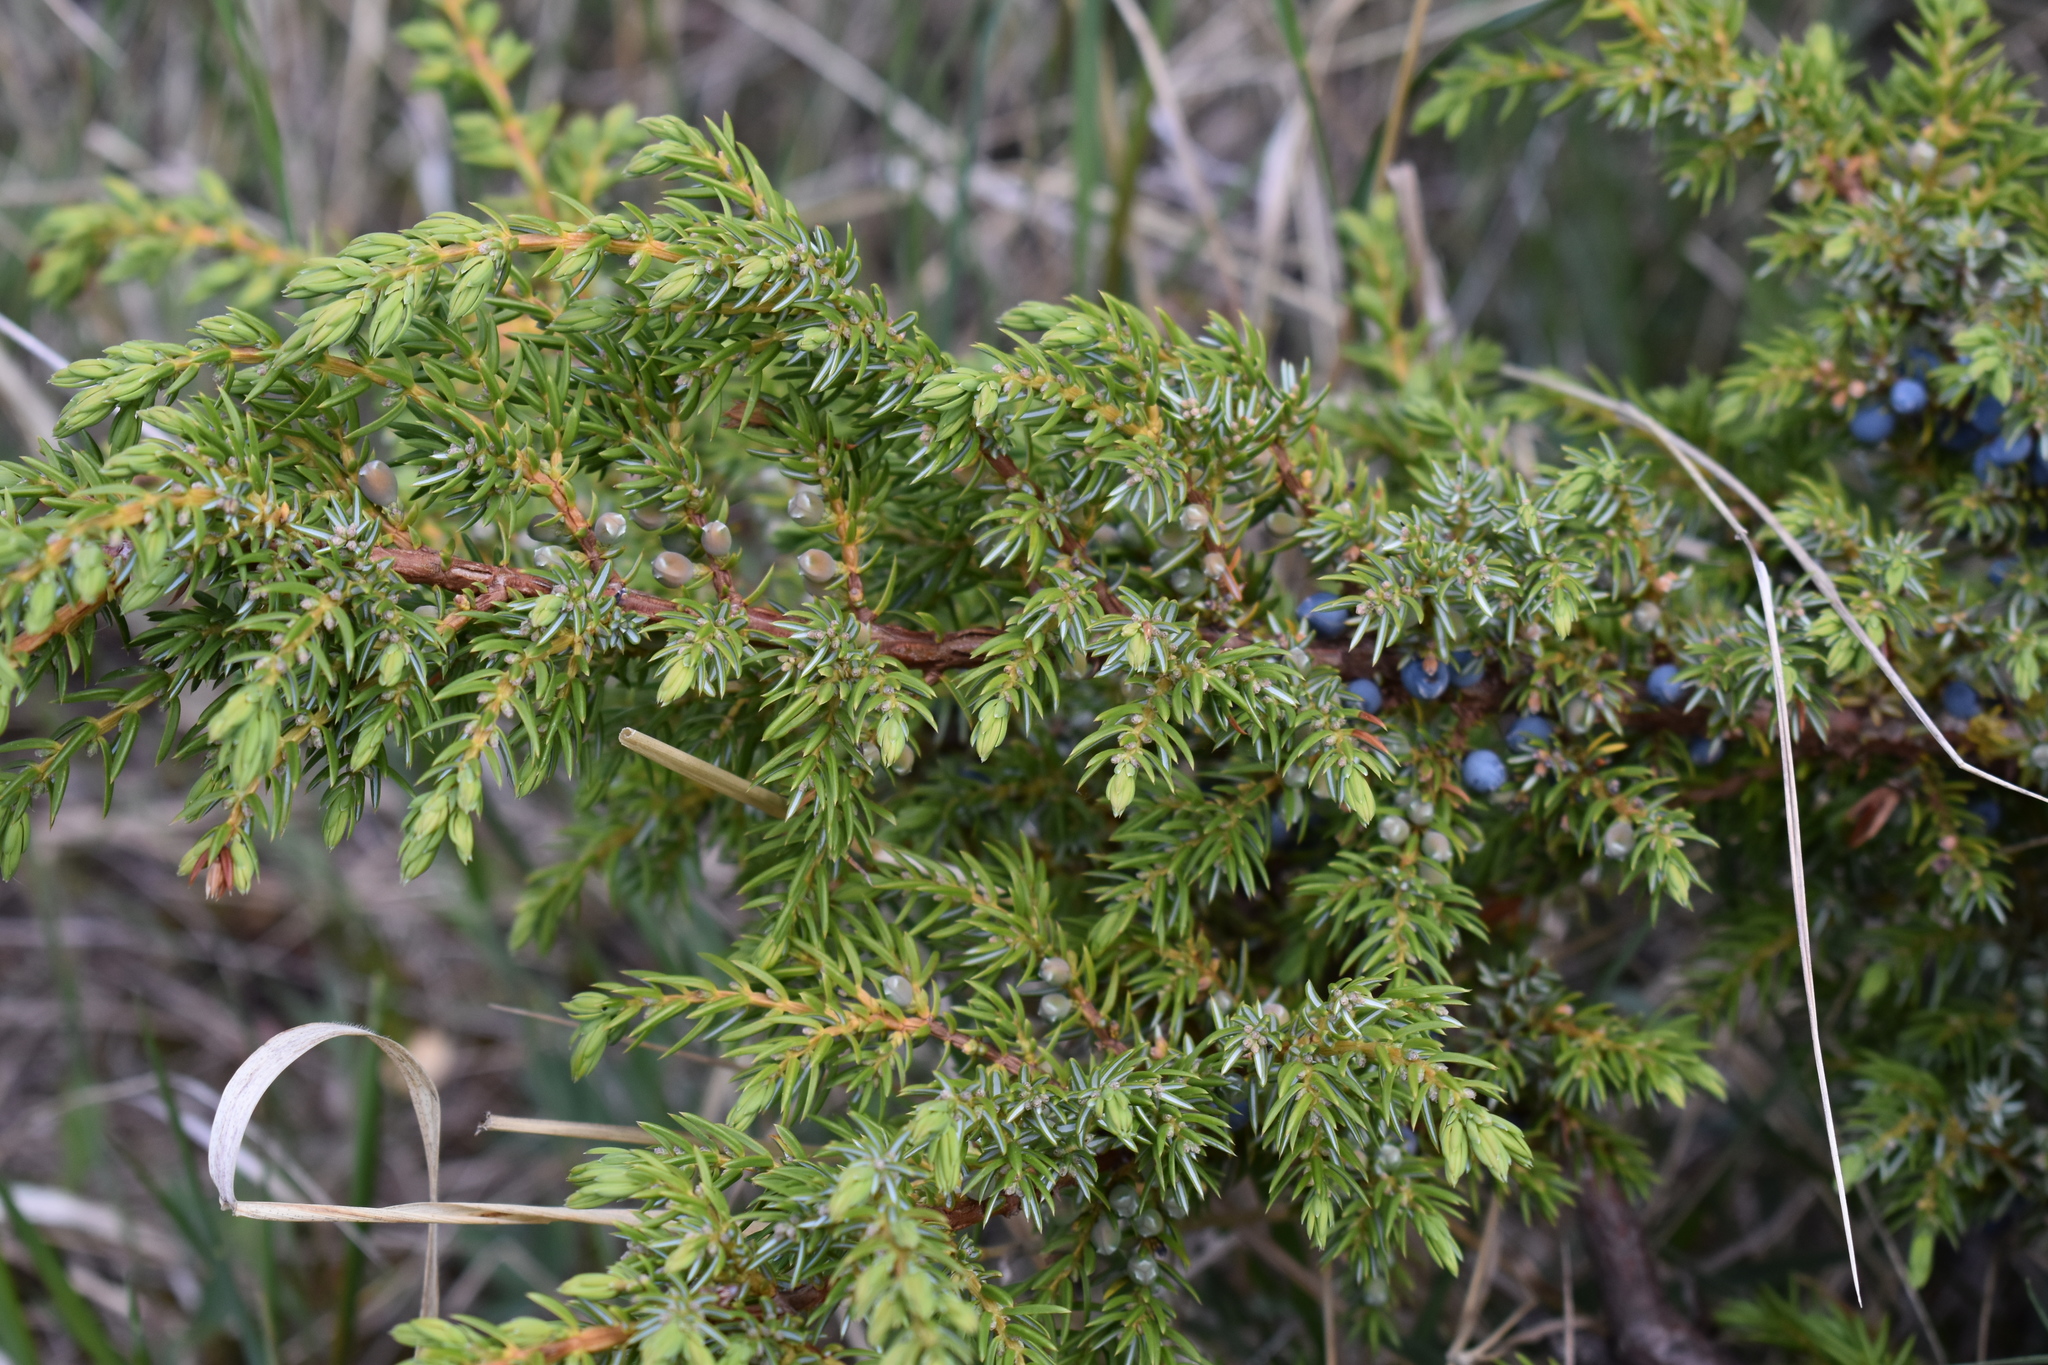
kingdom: Plantae
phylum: Tracheophyta
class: Pinopsida
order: Pinales
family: Cupressaceae
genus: Juniperus
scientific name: Juniperus communis
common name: Common juniper
